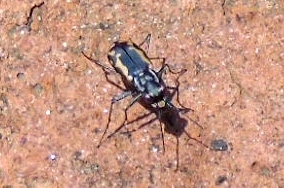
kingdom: Animalia
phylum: Arthropoda
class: Insecta
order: Coleoptera
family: Carabidae
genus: Cicindela
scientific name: Cicindela hydrophoba
